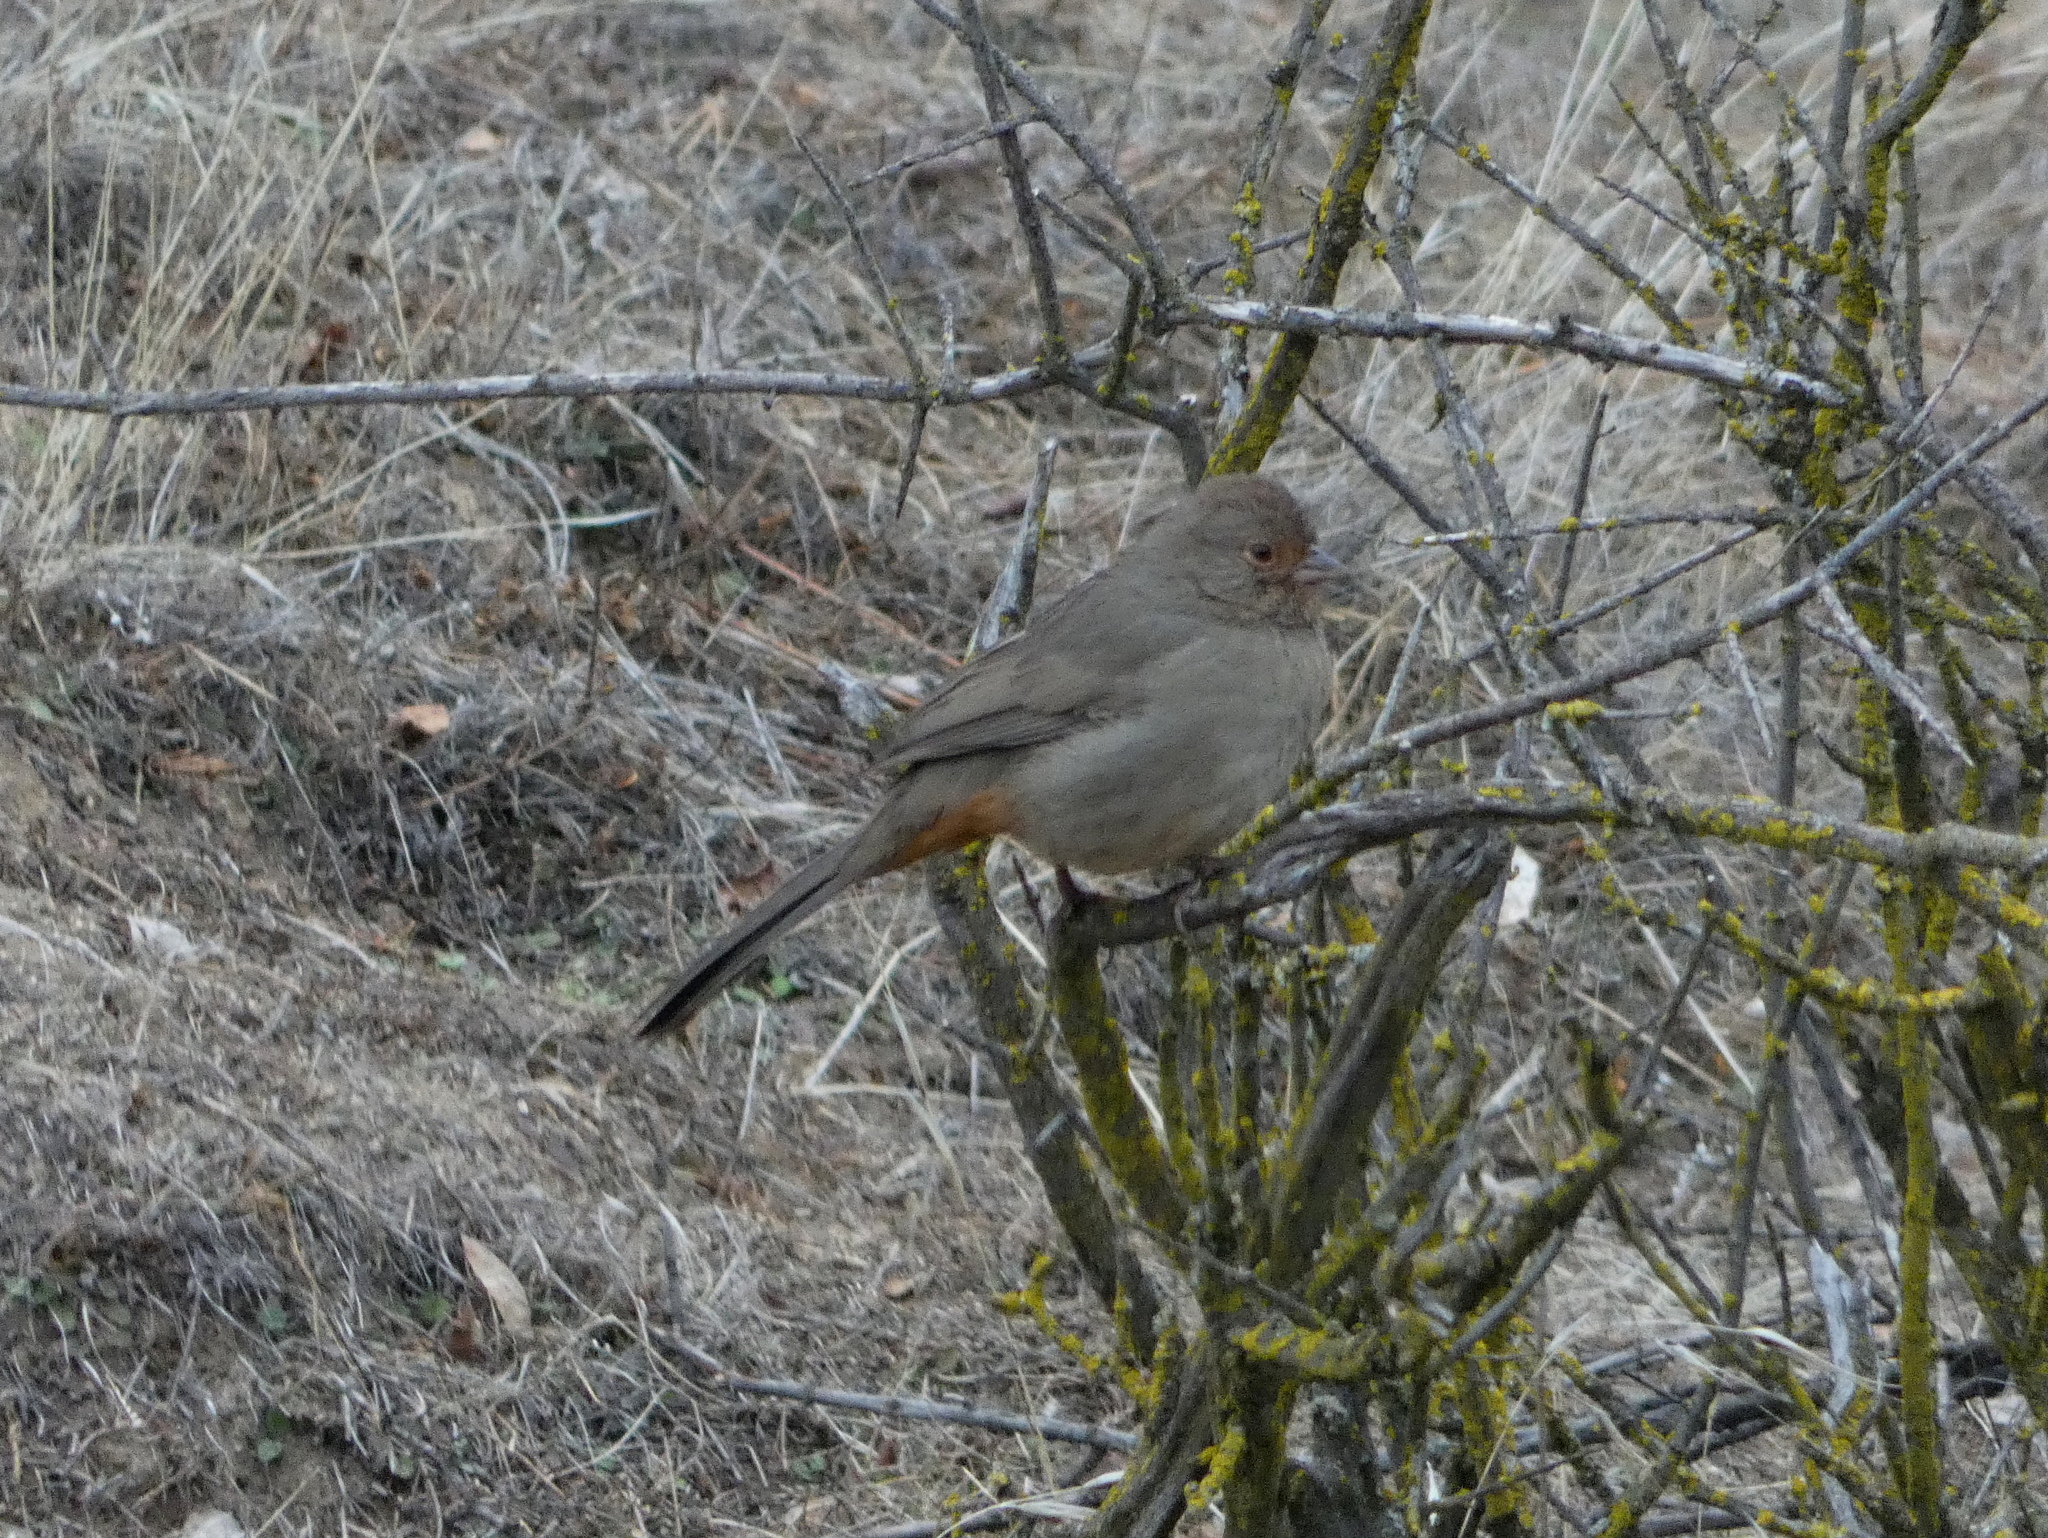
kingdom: Animalia
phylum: Chordata
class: Aves
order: Passeriformes
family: Passerellidae
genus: Melozone
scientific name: Melozone crissalis
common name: California towhee
